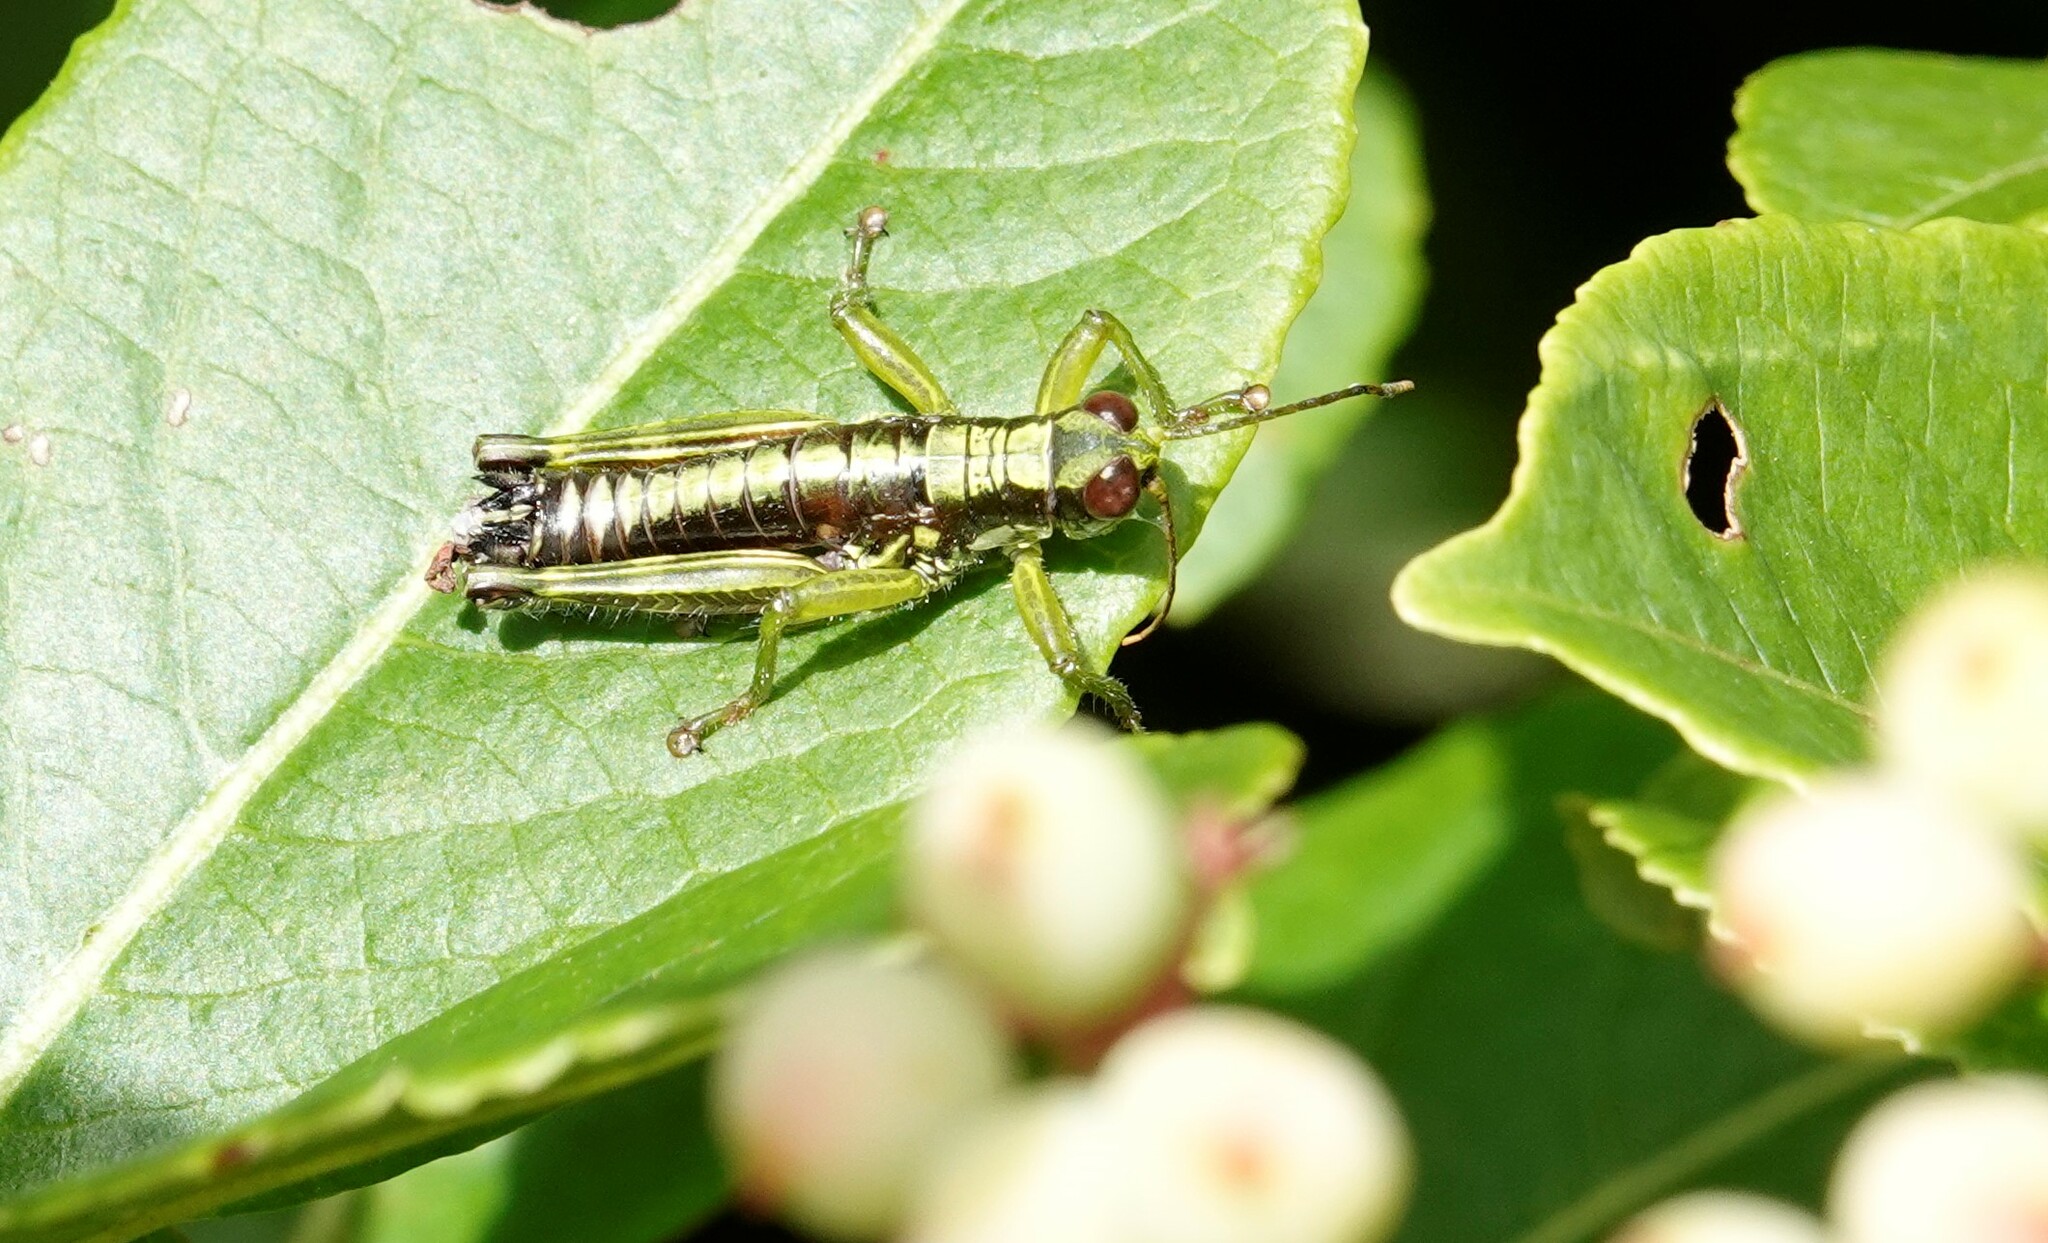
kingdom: Animalia
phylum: Arthropoda
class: Insecta
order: Orthoptera
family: Acrididae
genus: Booneacris
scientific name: Booneacris glacialis
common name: Wingless mountain grasshopper
